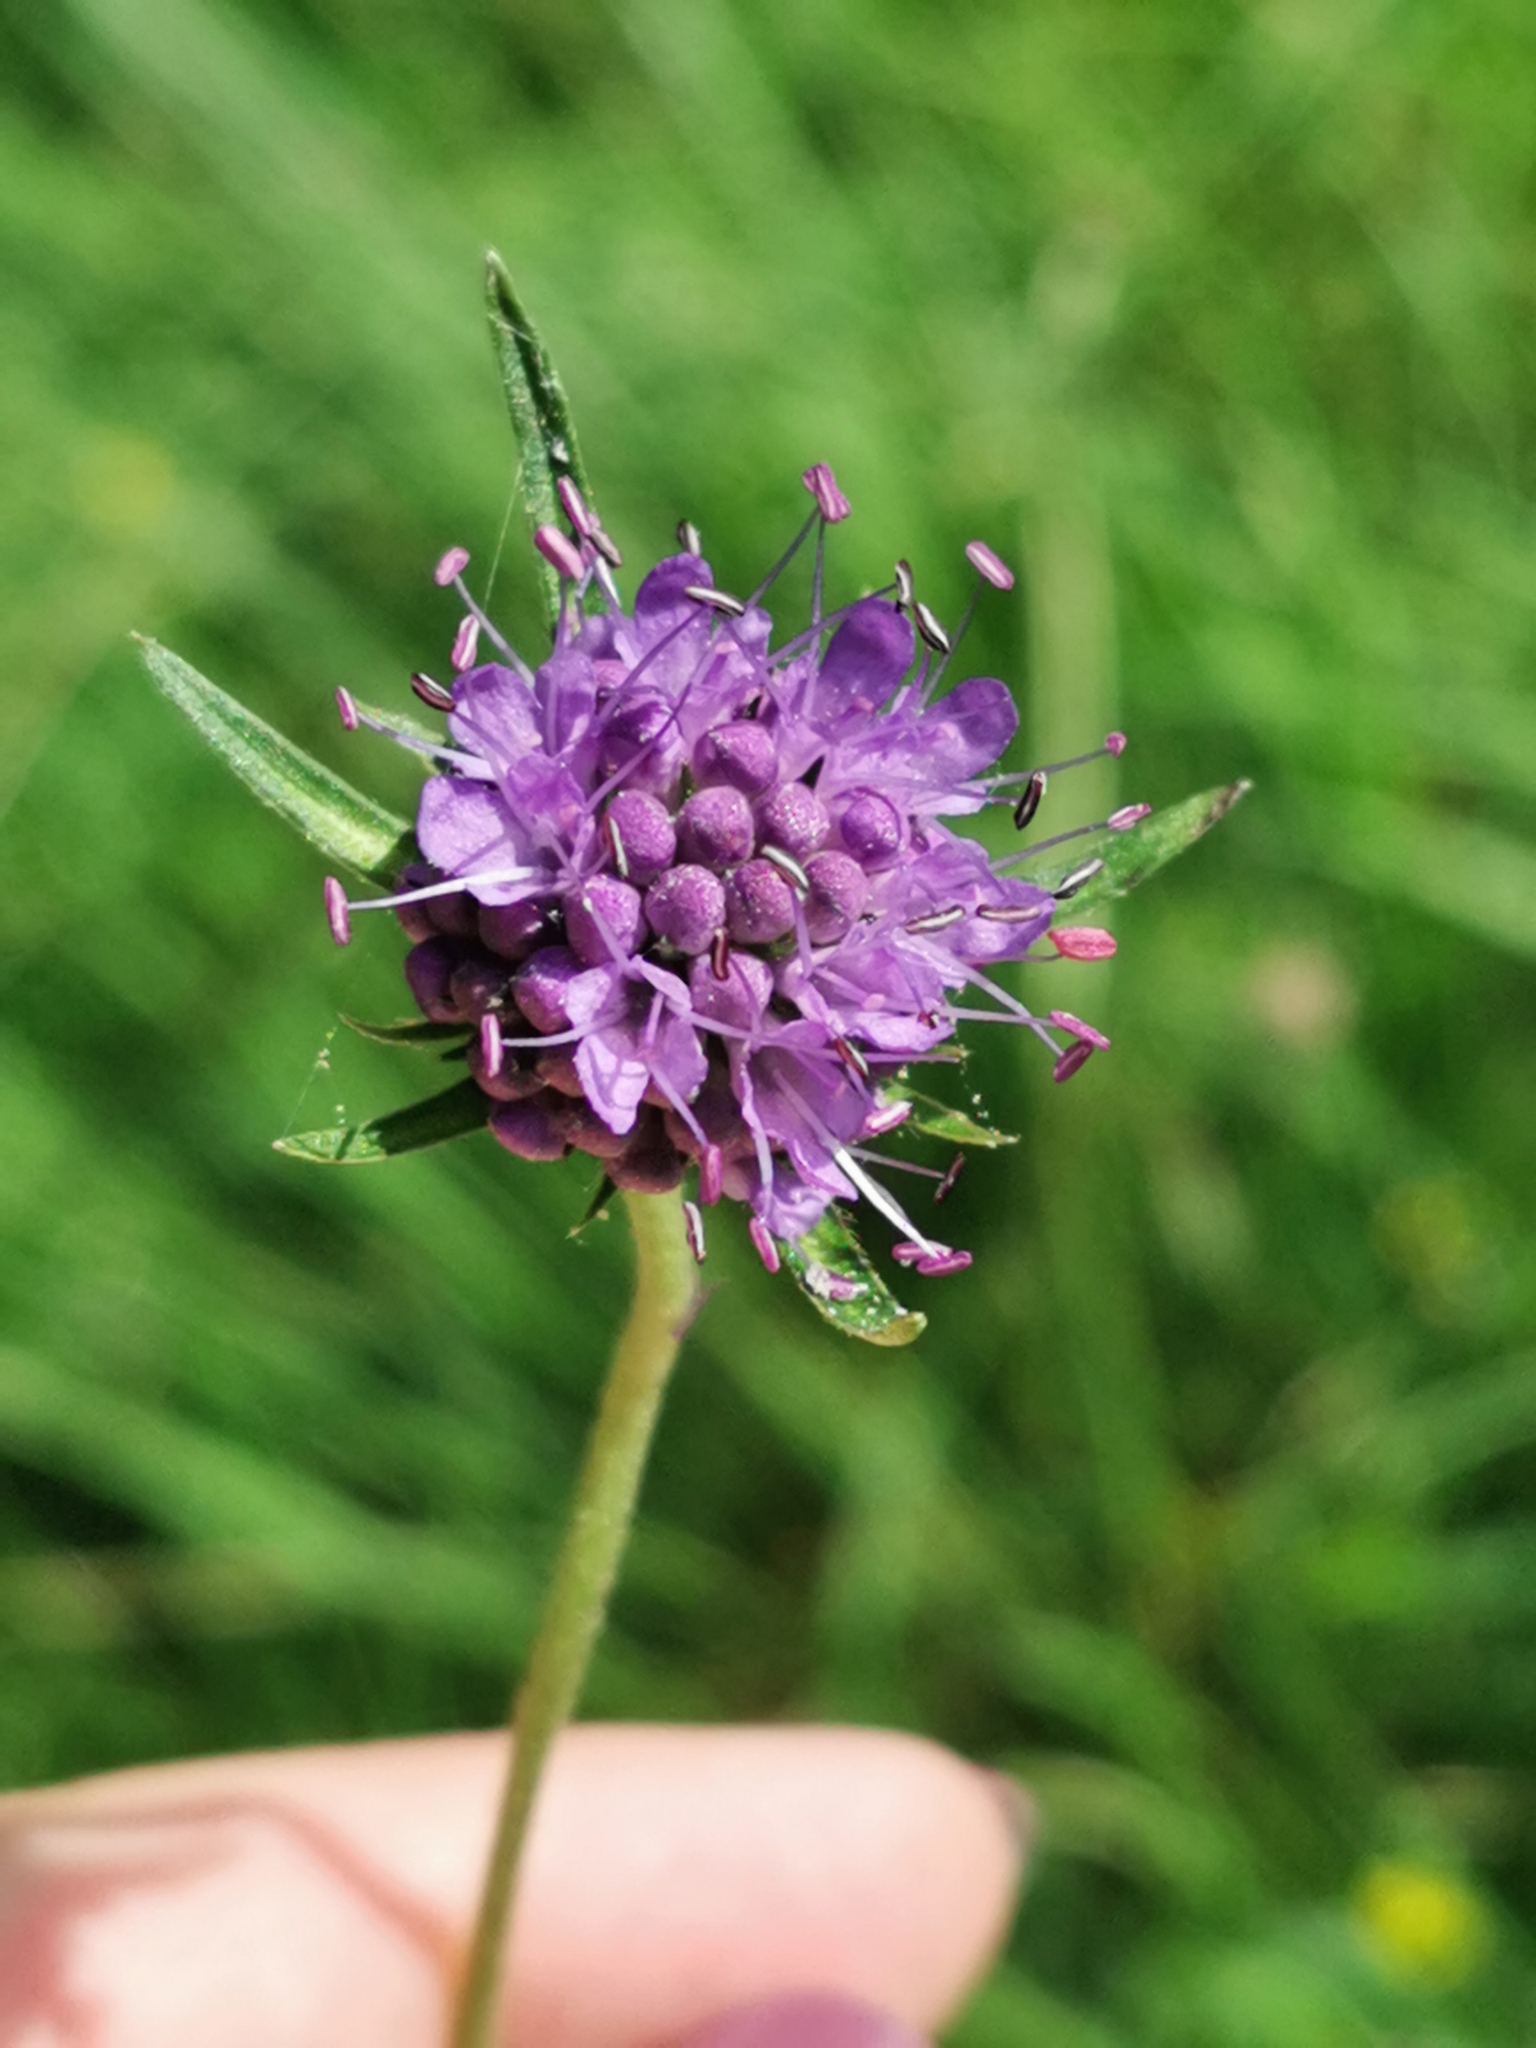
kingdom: Plantae
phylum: Tracheophyta
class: Magnoliopsida
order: Dipsacales
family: Caprifoliaceae
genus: Succisa
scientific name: Succisa pratensis
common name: Devil's-bit
